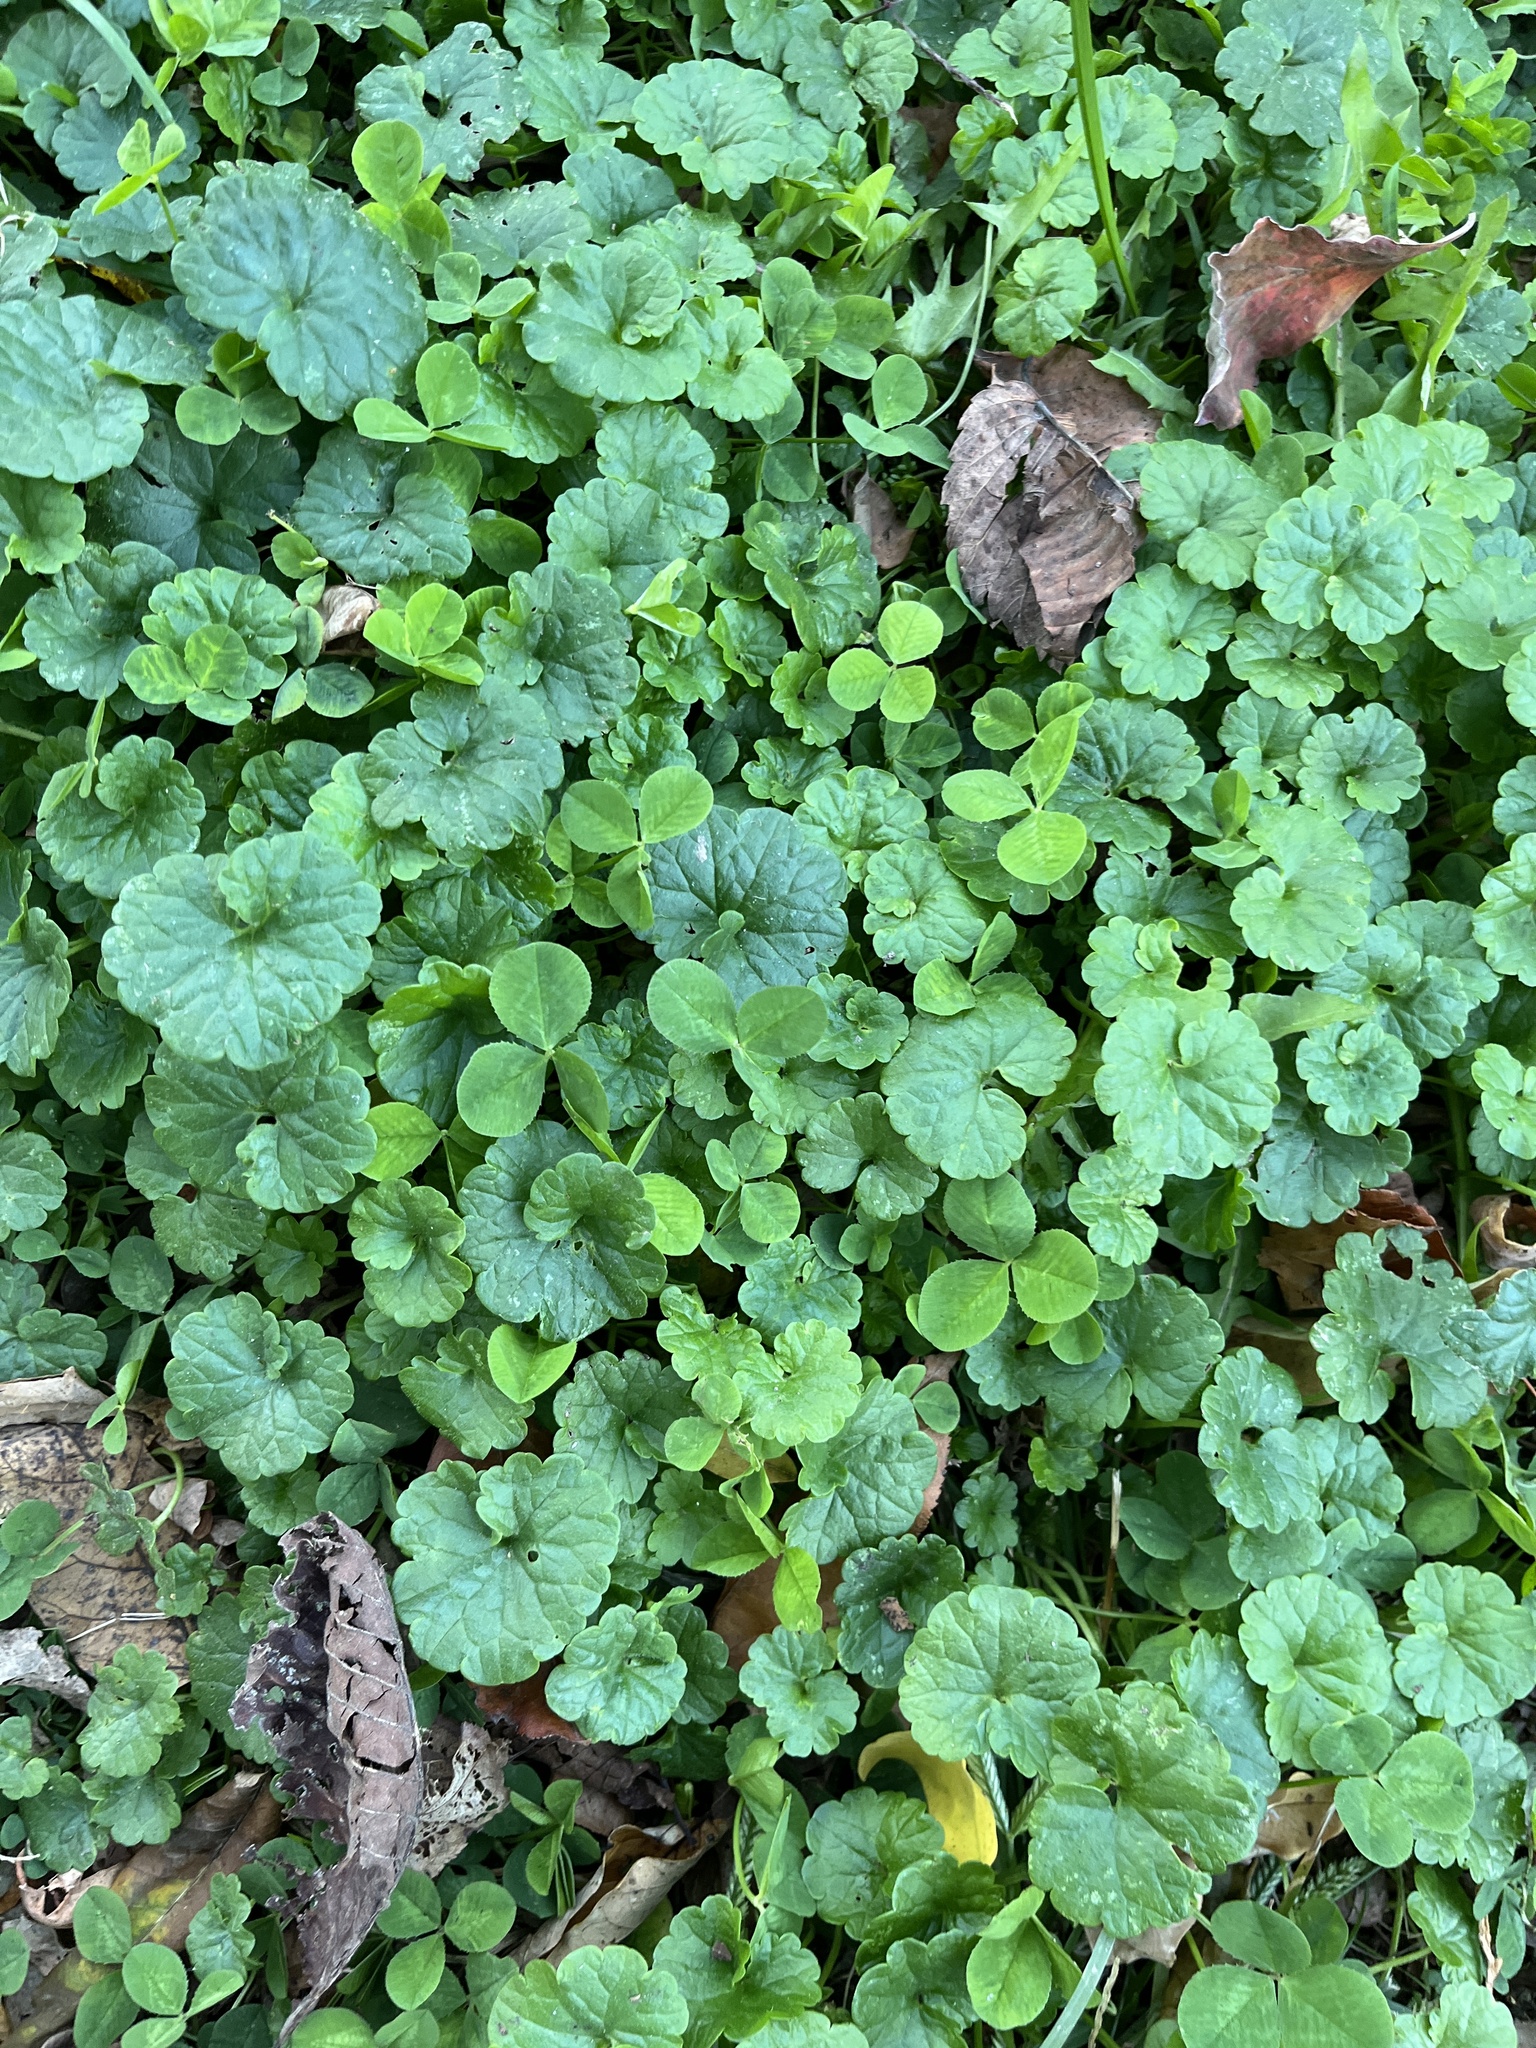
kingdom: Plantae
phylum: Tracheophyta
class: Magnoliopsida
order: Lamiales
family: Lamiaceae
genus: Glechoma
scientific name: Glechoma hederacea
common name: Ground ivy
